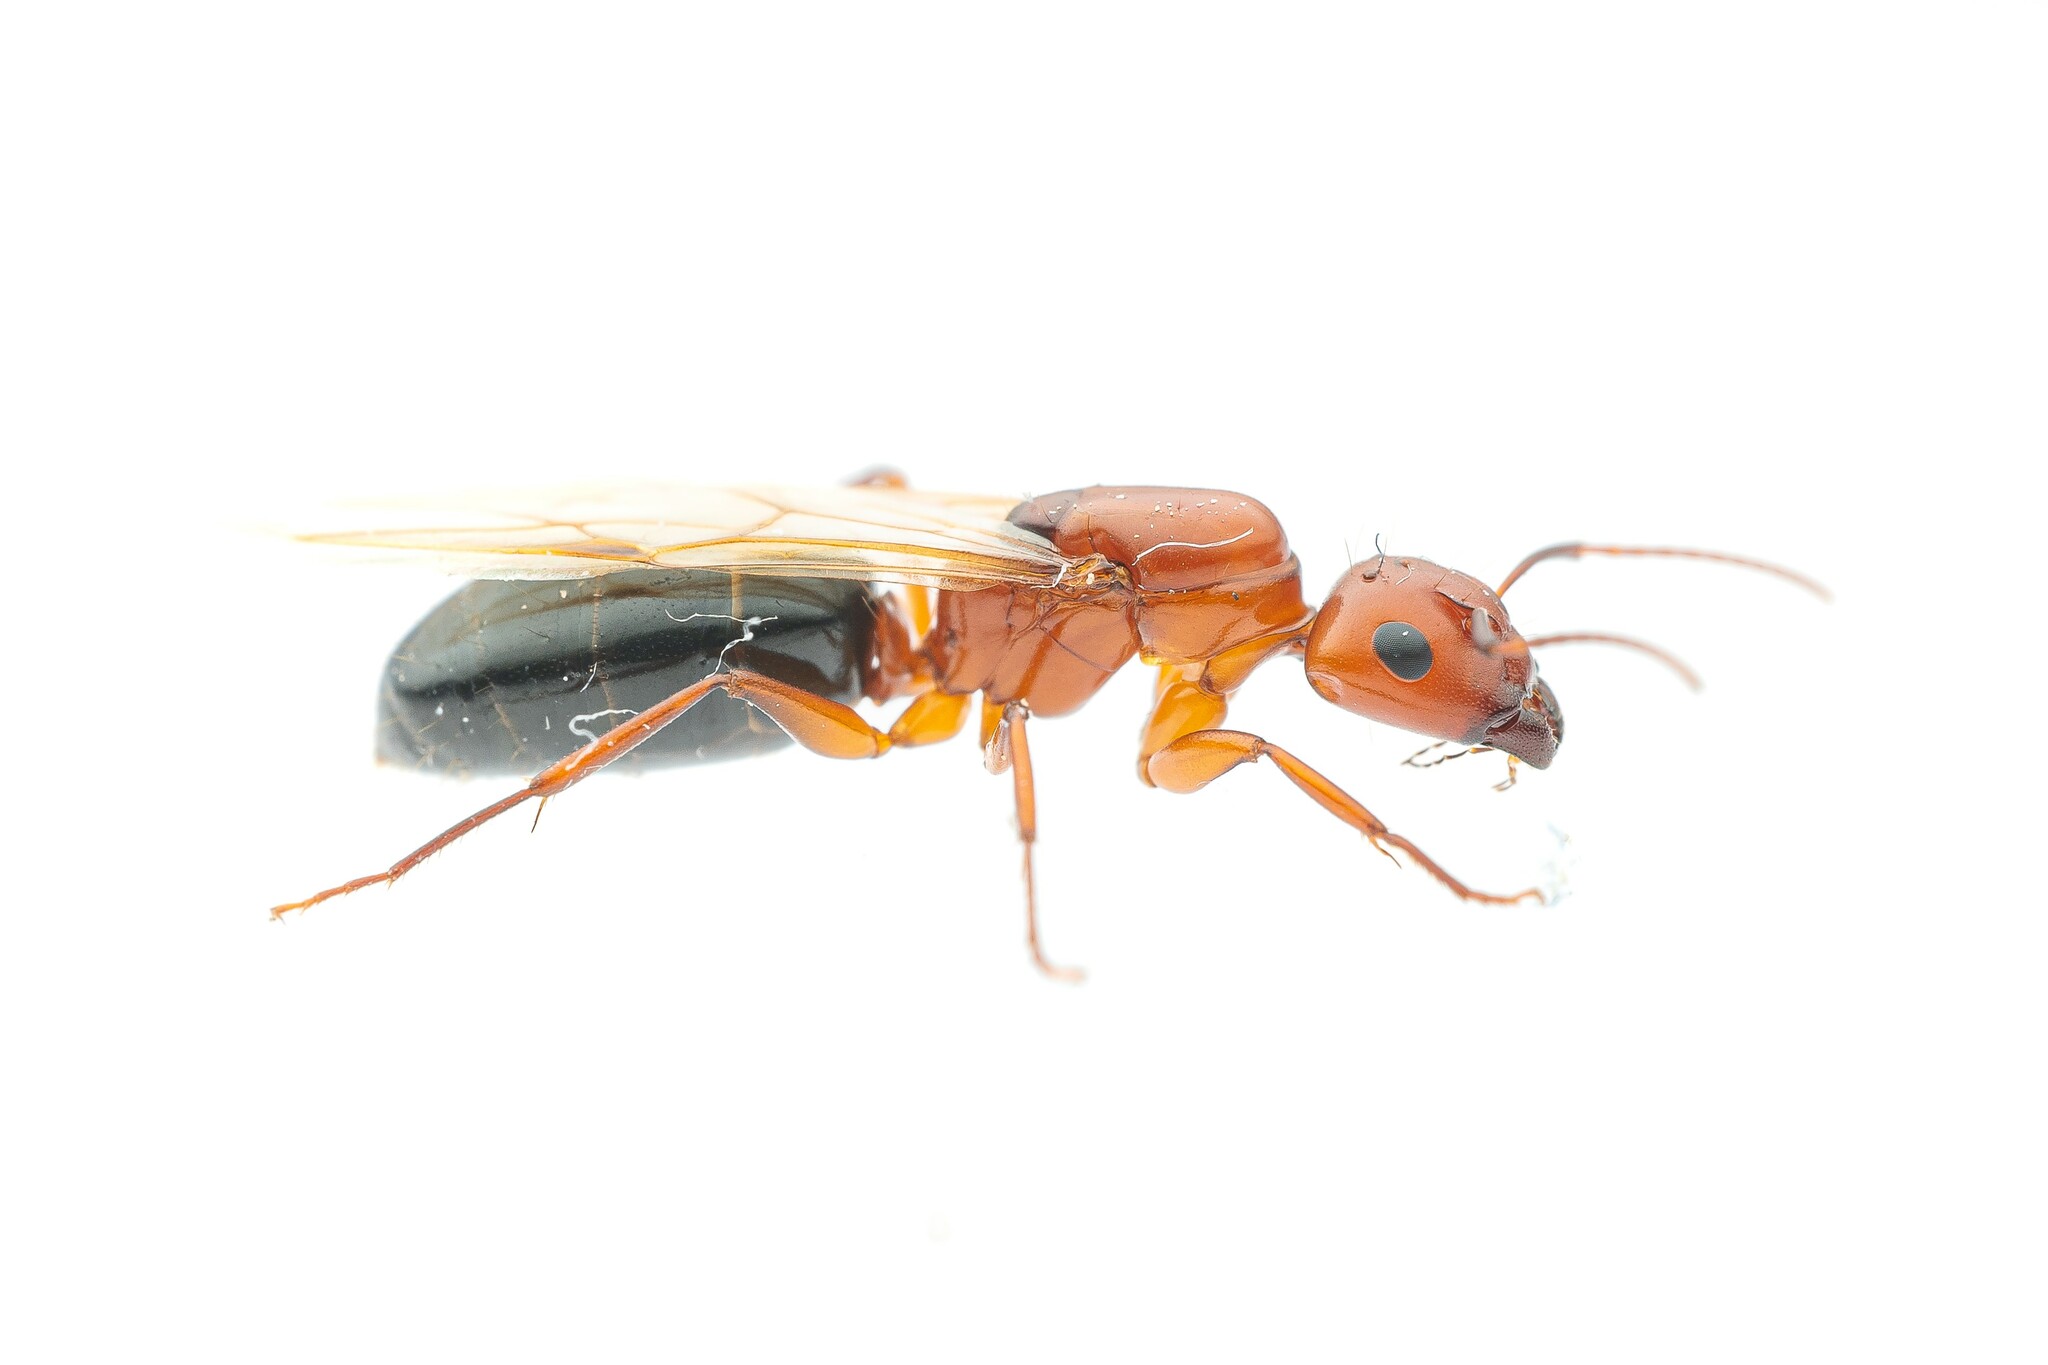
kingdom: Animalia
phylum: Arthropoda
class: Insecta
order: Hymenoptera
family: Formicidae
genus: Camponotus
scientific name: Camponotus sayi
